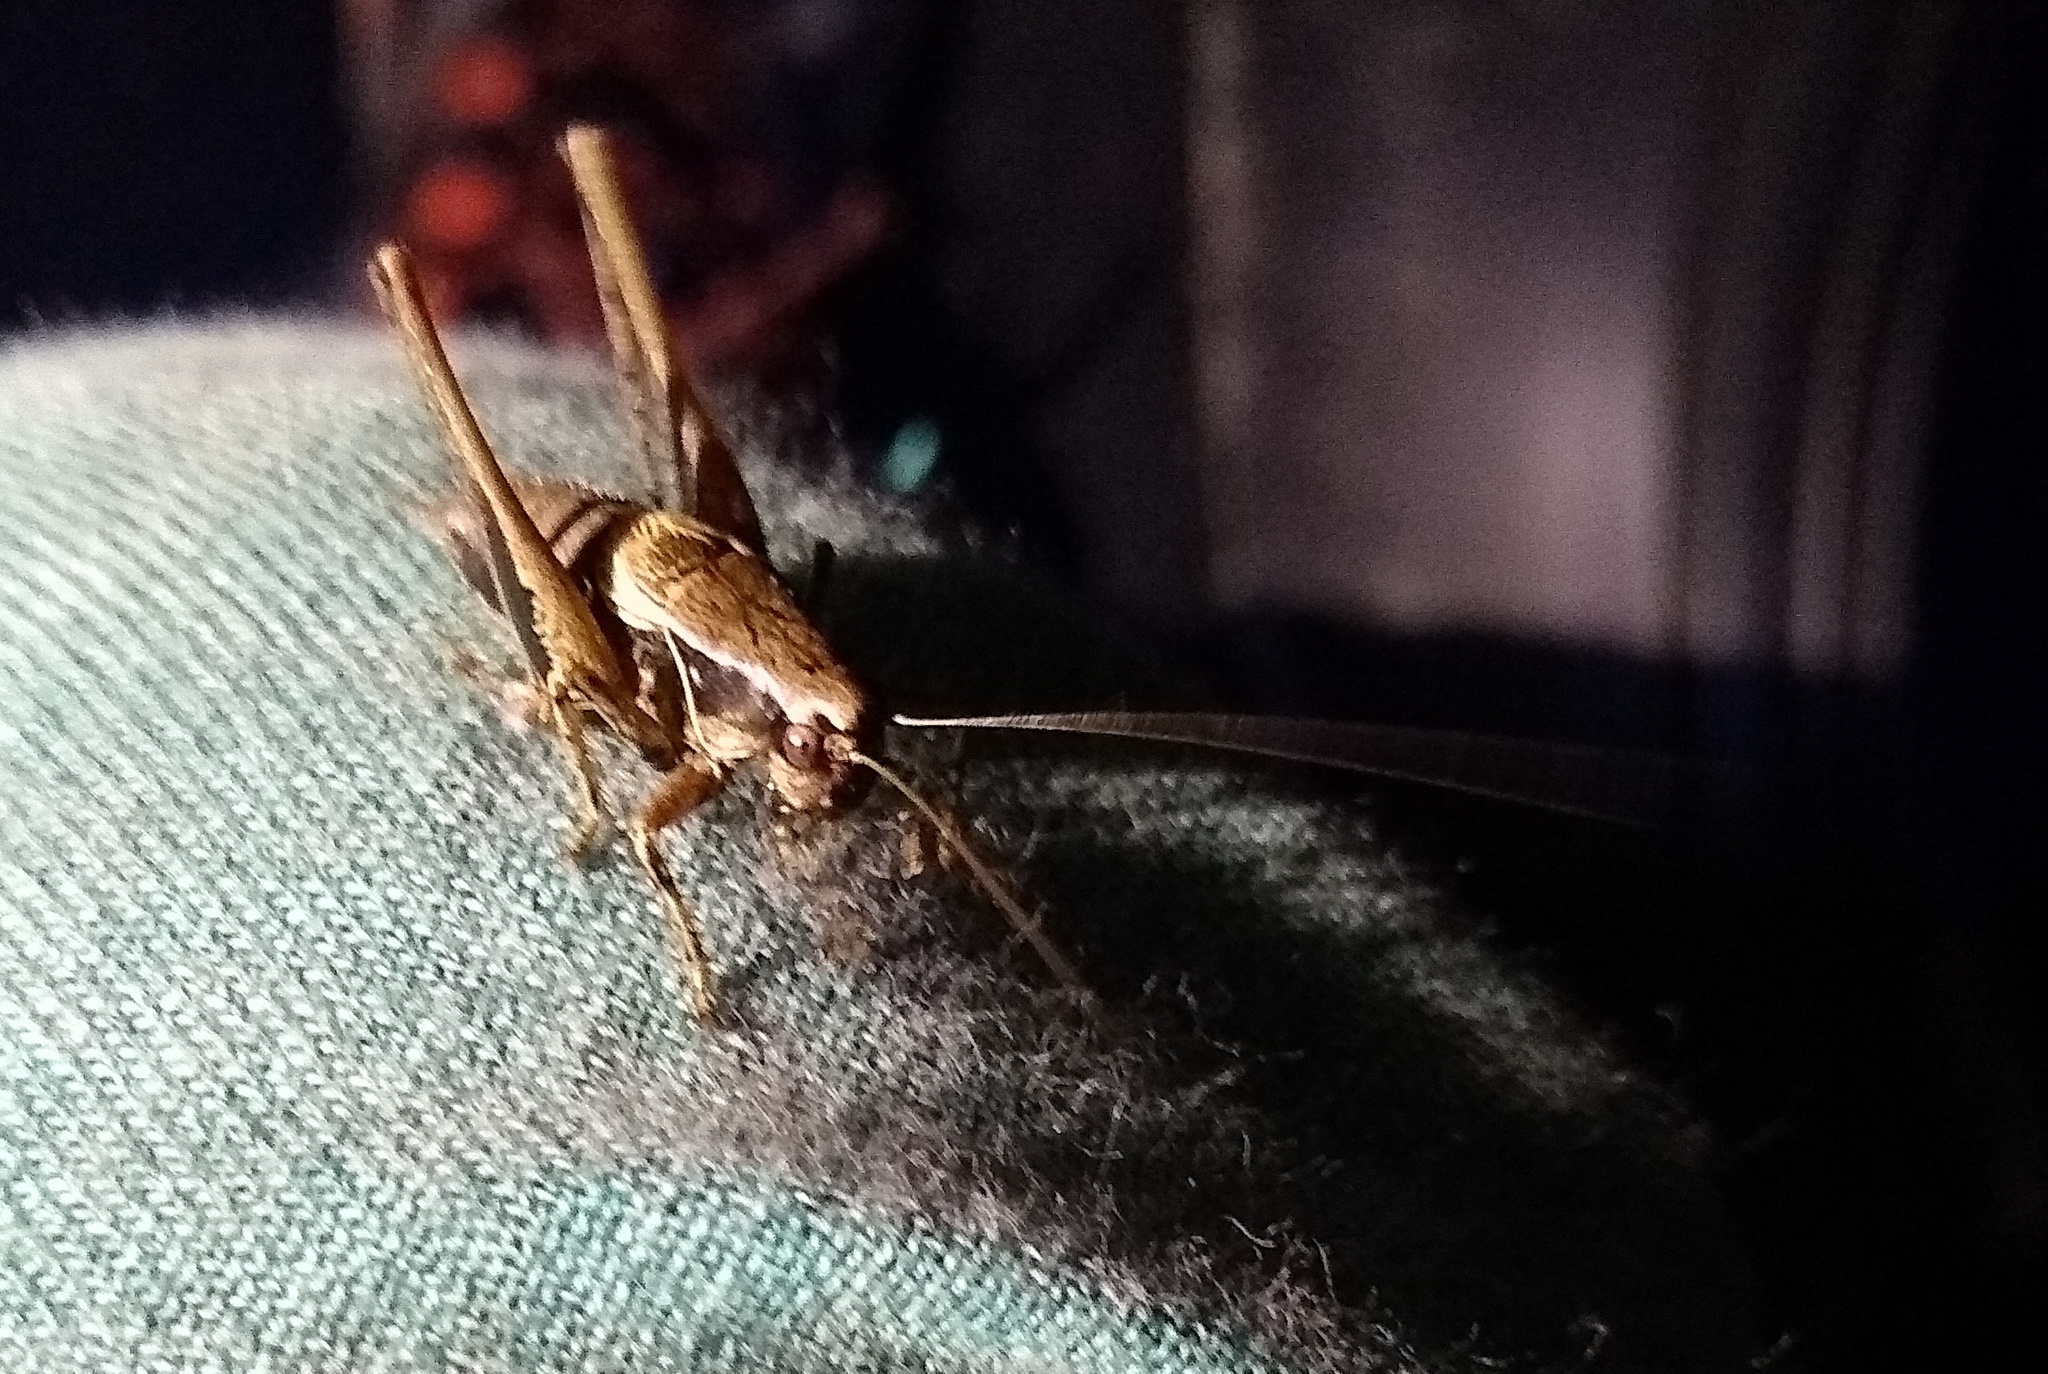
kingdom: Animalia
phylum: Arthropoda
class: Insecta
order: Orthoptera
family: Tettigoniidae
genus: Pholidoptera
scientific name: Pholidoptera griseoaptera
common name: Dark bush-cricket
